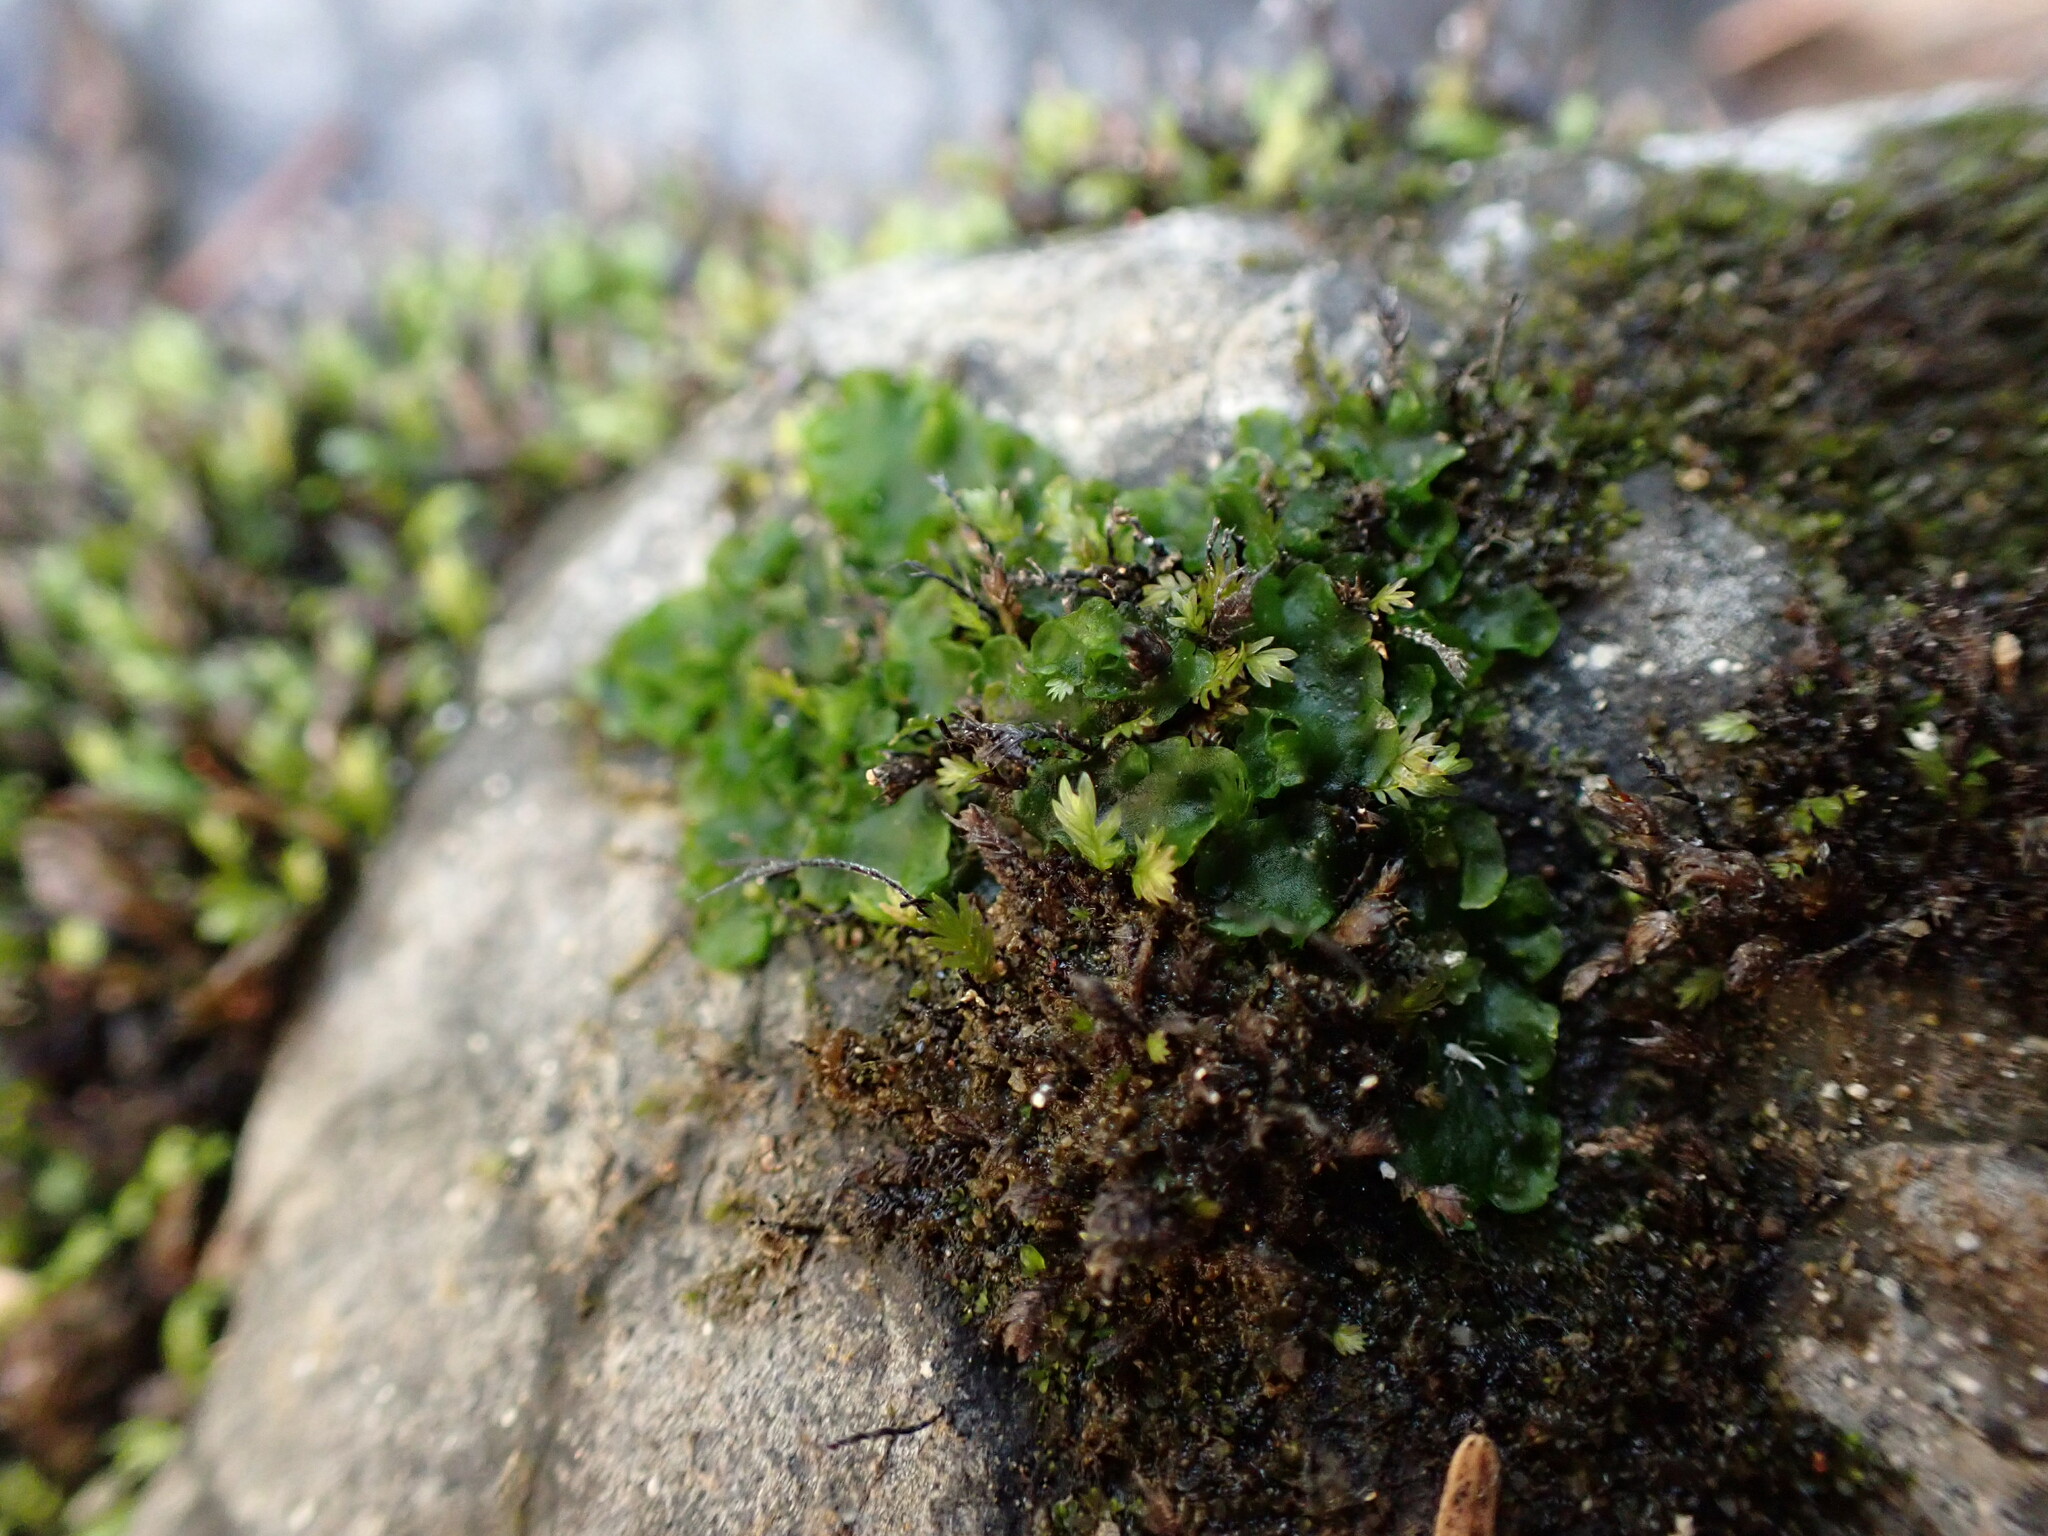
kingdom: Plantae
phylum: Marchantiophyta
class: Jungermanniopsida
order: Metzgeriales
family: Aneuraceae
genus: Aneura
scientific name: Aneura pinguis
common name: Common greasewort
